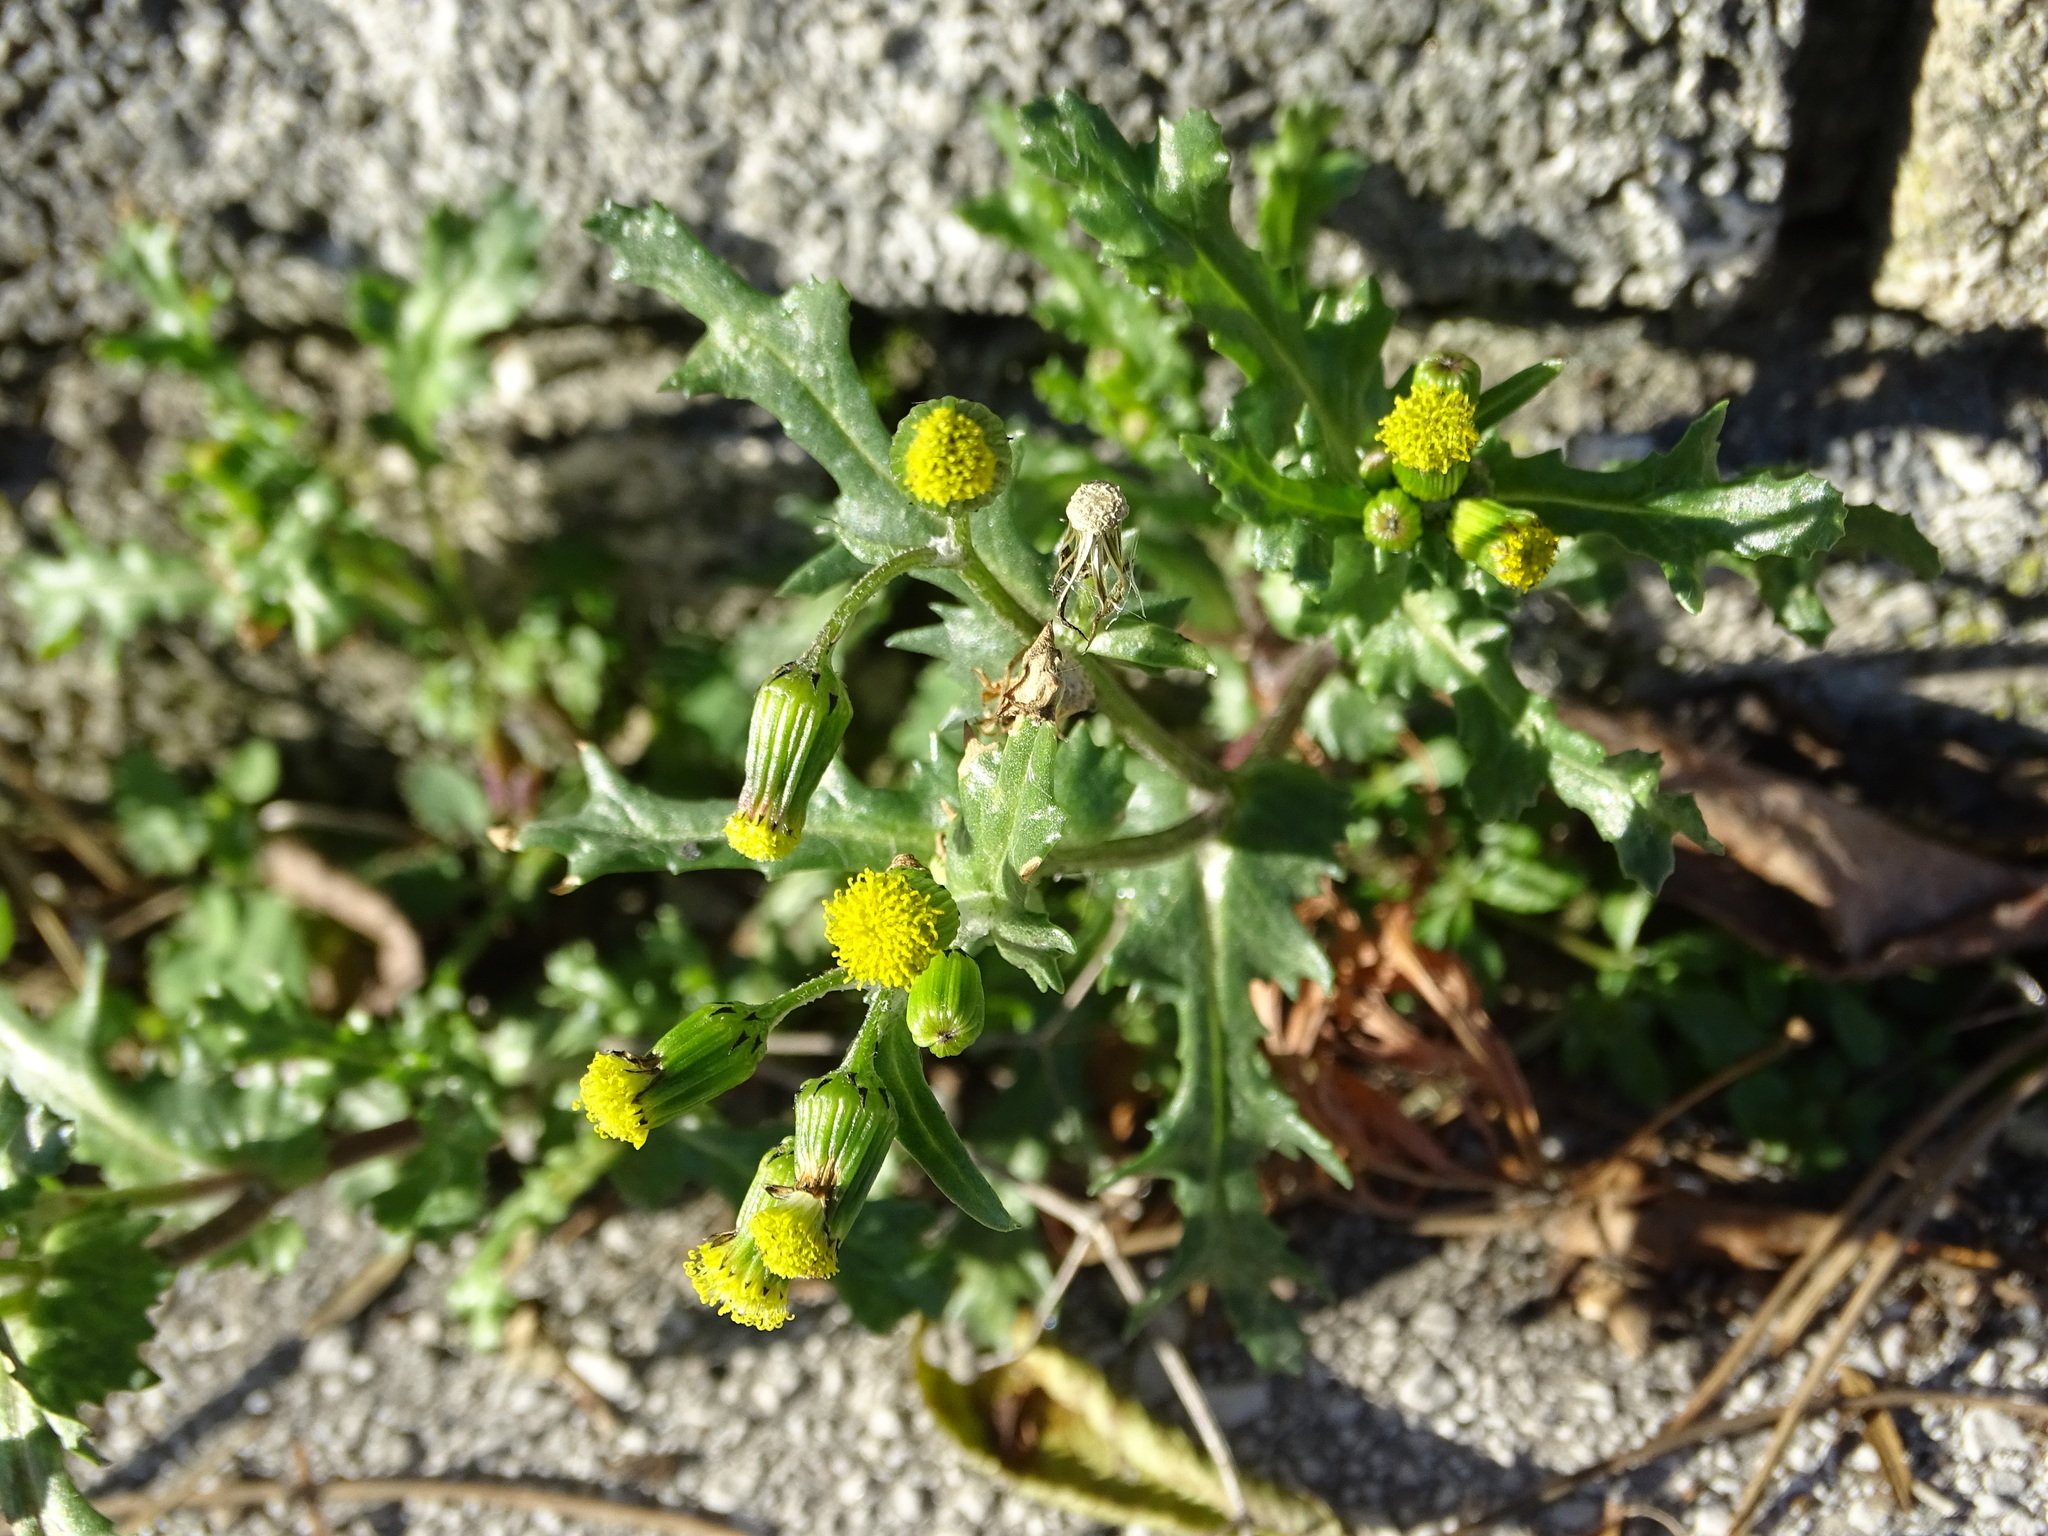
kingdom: Plantae
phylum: Tracheophyta
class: Magnoliopsida
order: Asterales
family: Asteraceae
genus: Senecio
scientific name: Senecio vulgaris
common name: Old-man-in-the-spring
